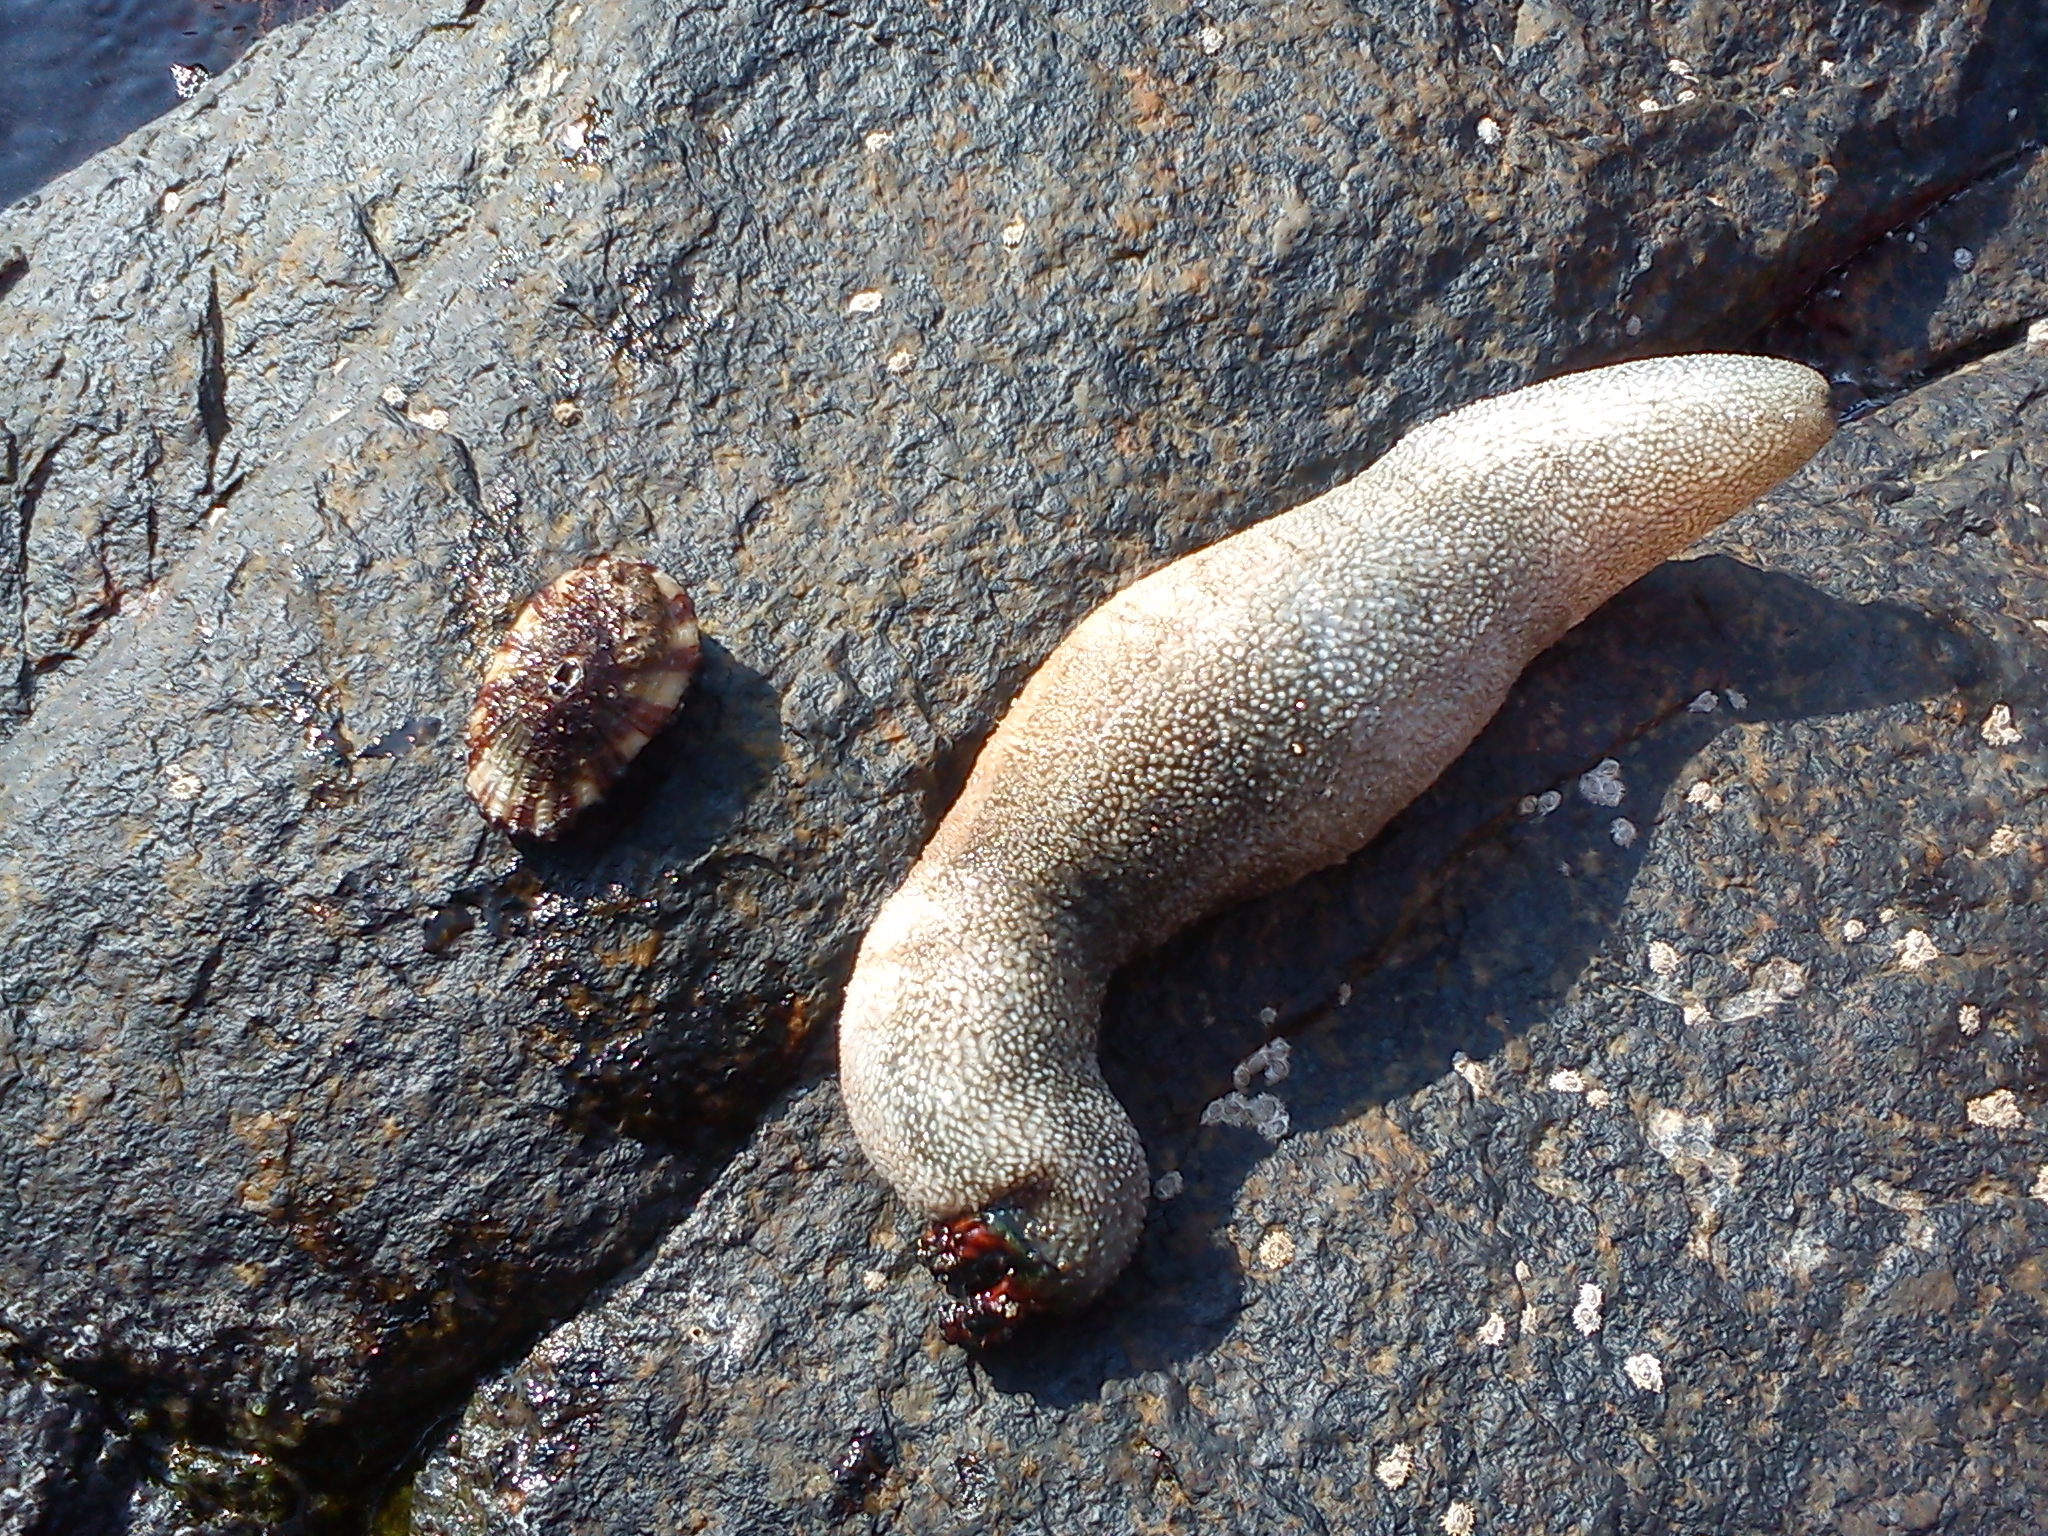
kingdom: Animalia
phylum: Echinodermata
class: Holothuroidea
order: Dendrochirotida
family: Cucumariidae
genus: Athyonidium
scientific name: Athyonidium chilensis
